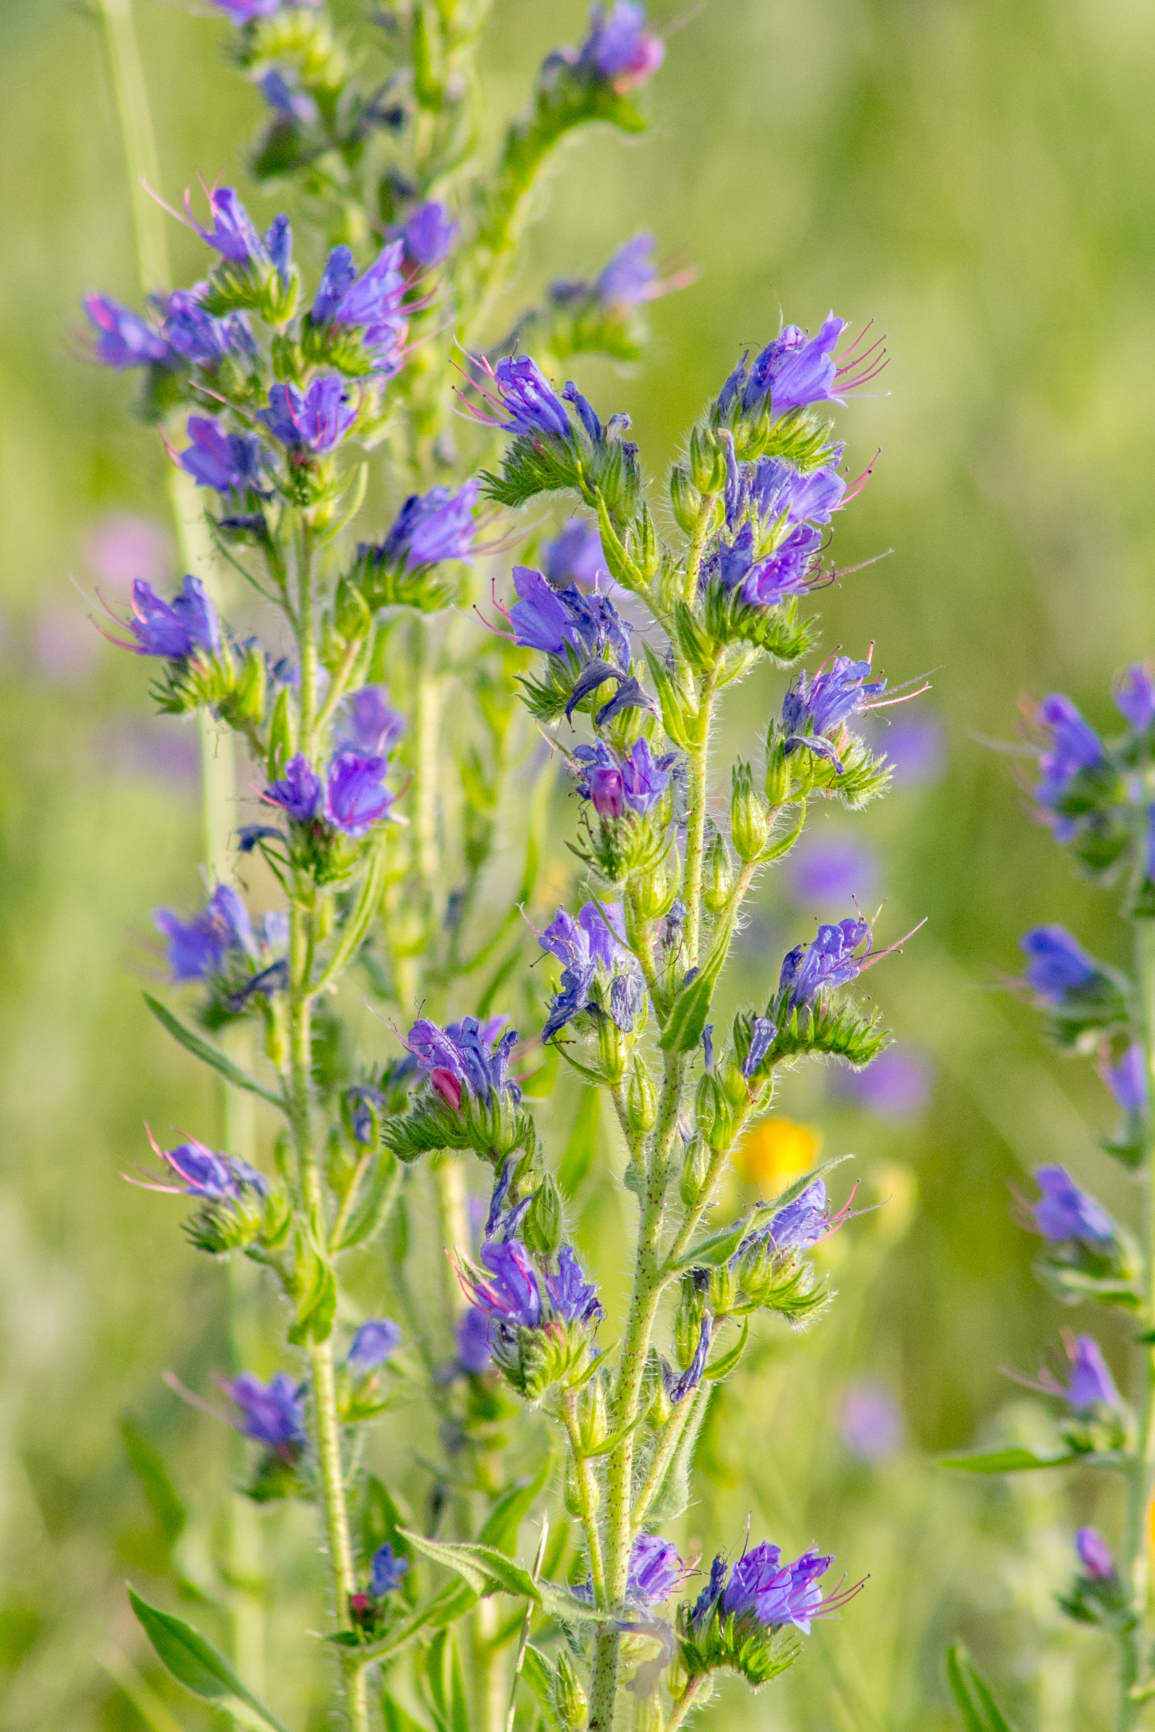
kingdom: Plantae
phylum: Tracheophyta
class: Magnoliopsida
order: Boraginales
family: Boraginaceae
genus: Echium
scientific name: Echium vulgare
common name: Common viper's bugloss
